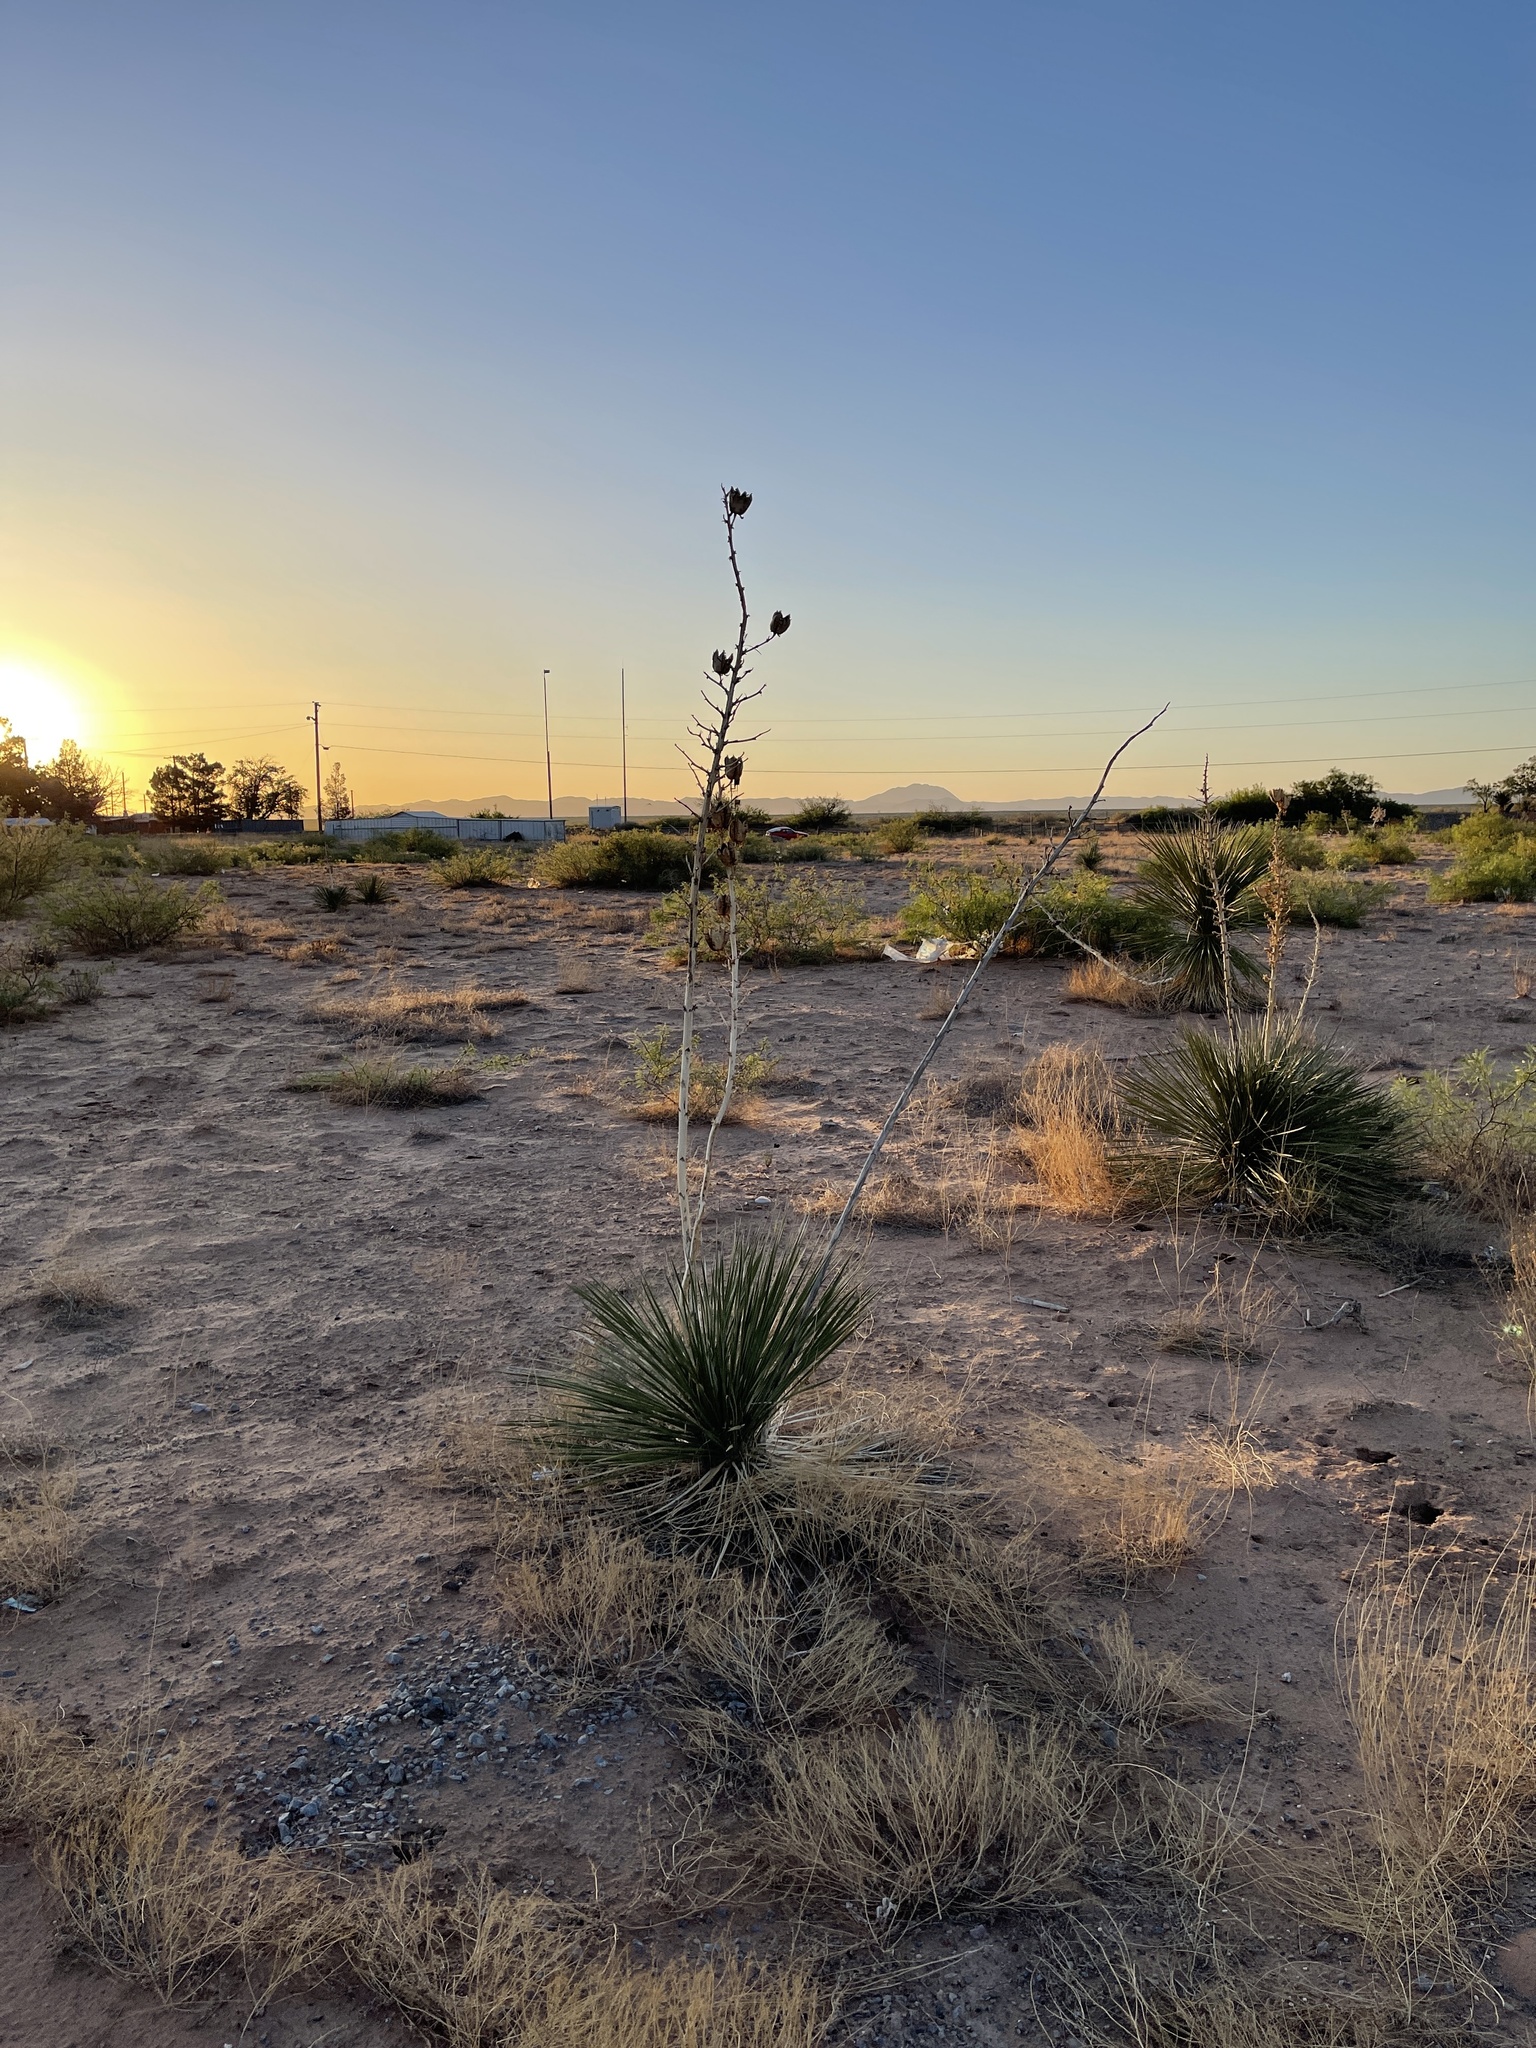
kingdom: Plantae
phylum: Tracheophyta
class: Liliopsida
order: Asparagales
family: Asparagaceae
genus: Yucca
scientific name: Yucca elata
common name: Palmella
